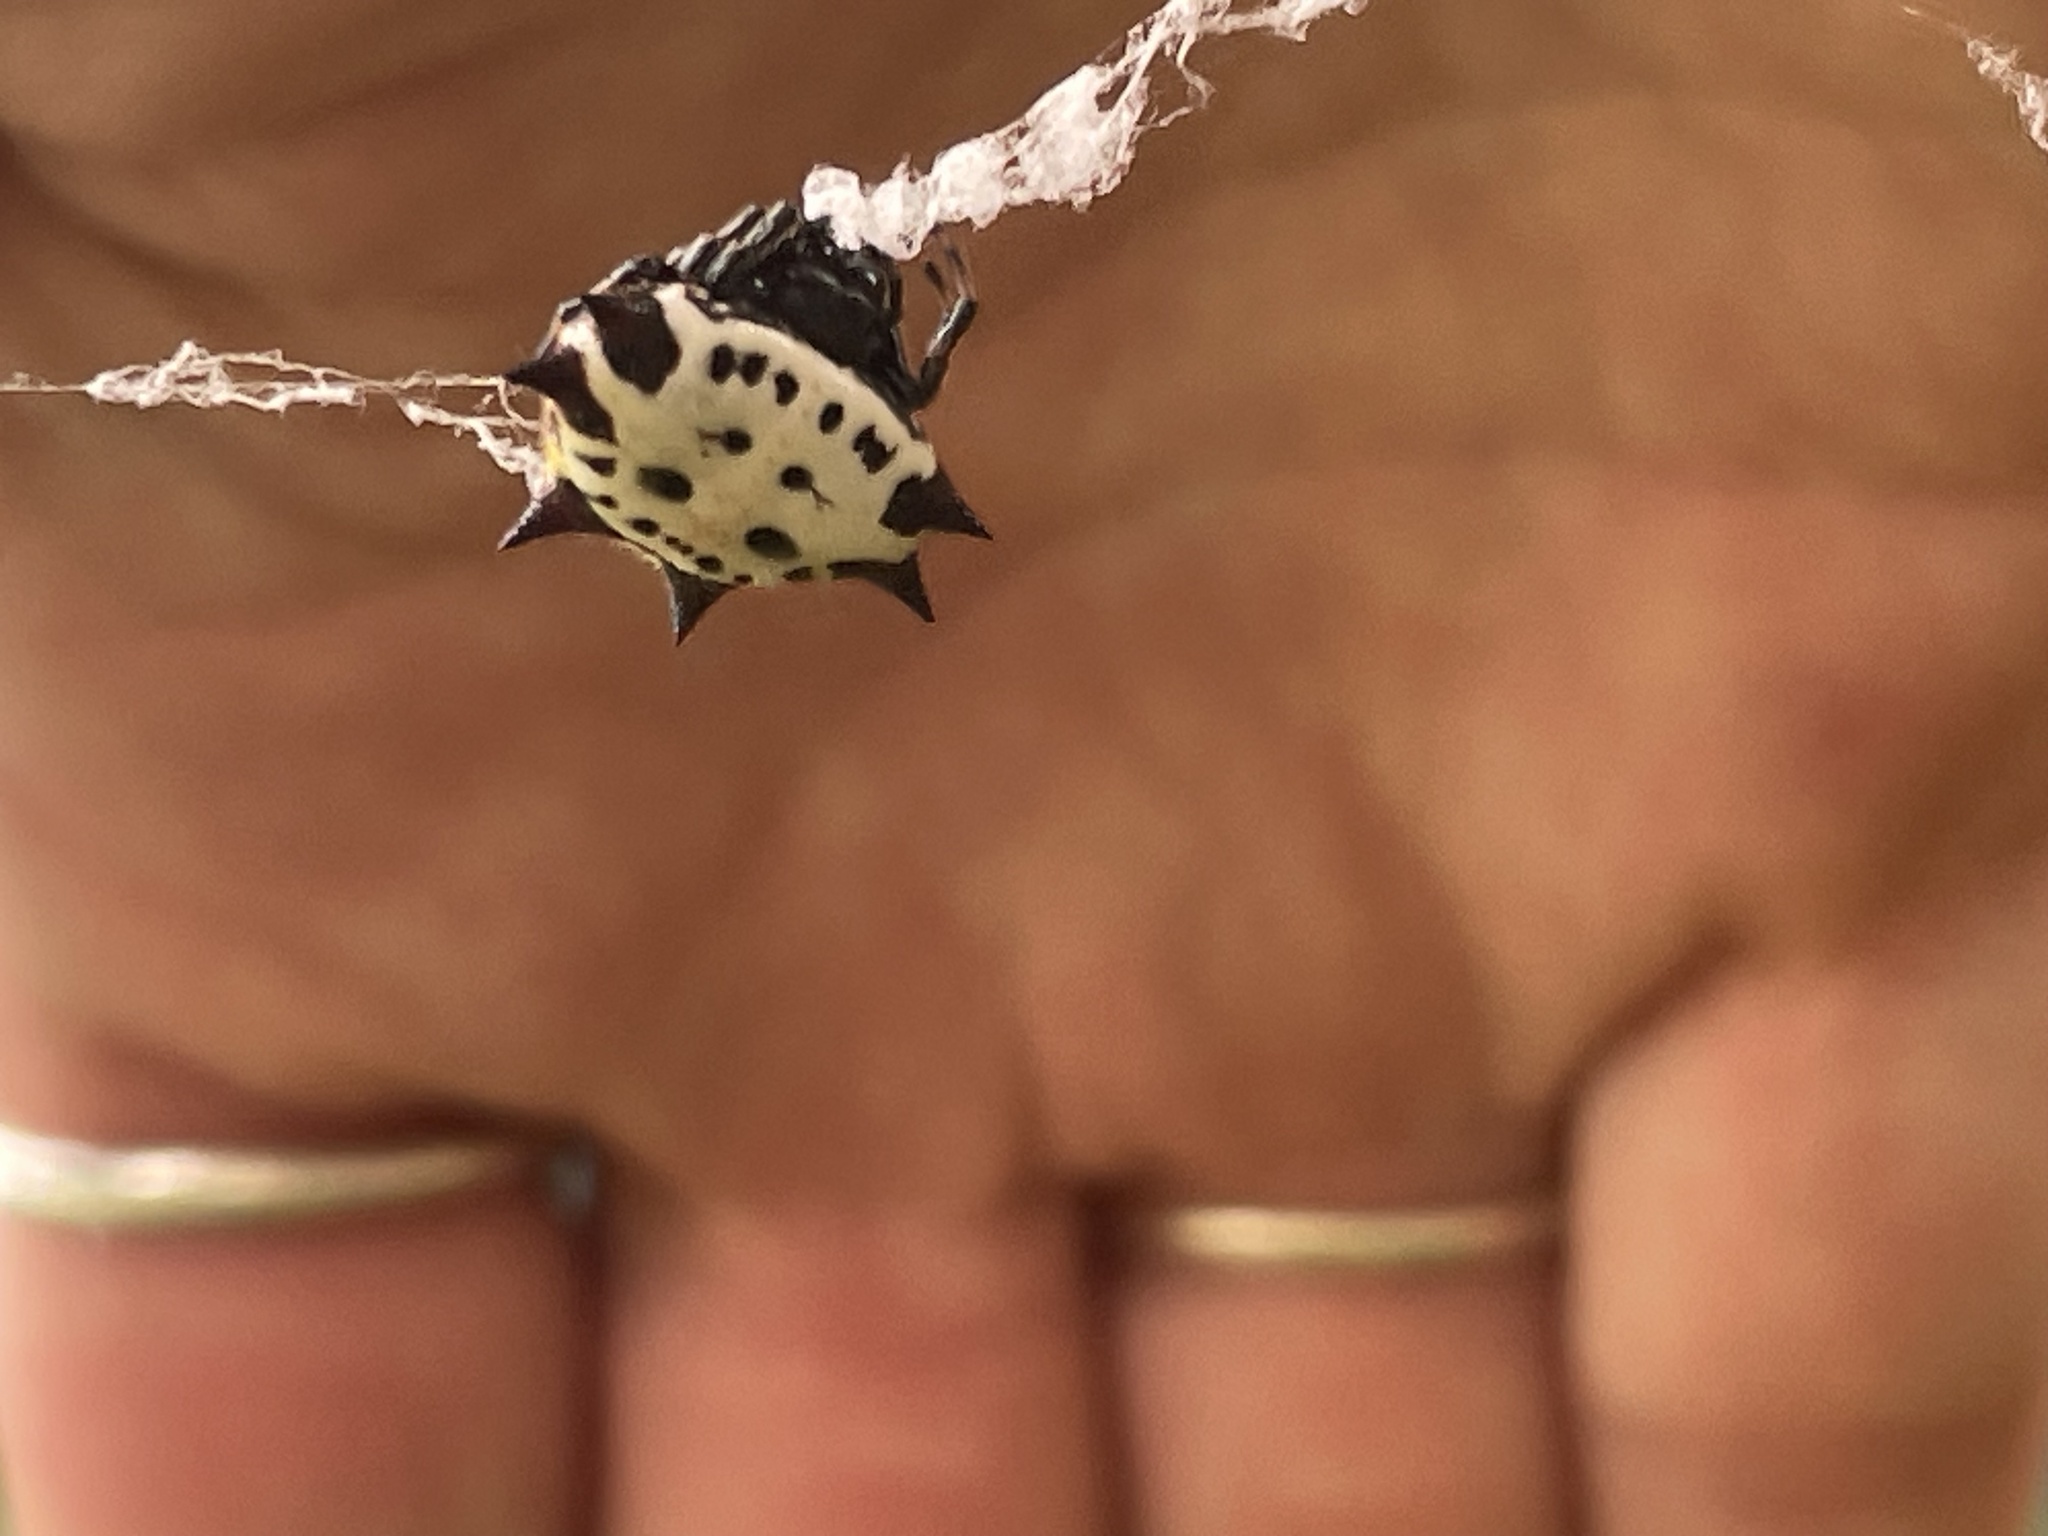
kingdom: Animalia
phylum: Arthropoda
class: Arachnida
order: Araneae
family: Araneidae
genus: Gasteracantha
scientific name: Gasteracantha cancriformis
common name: Orb weavers
